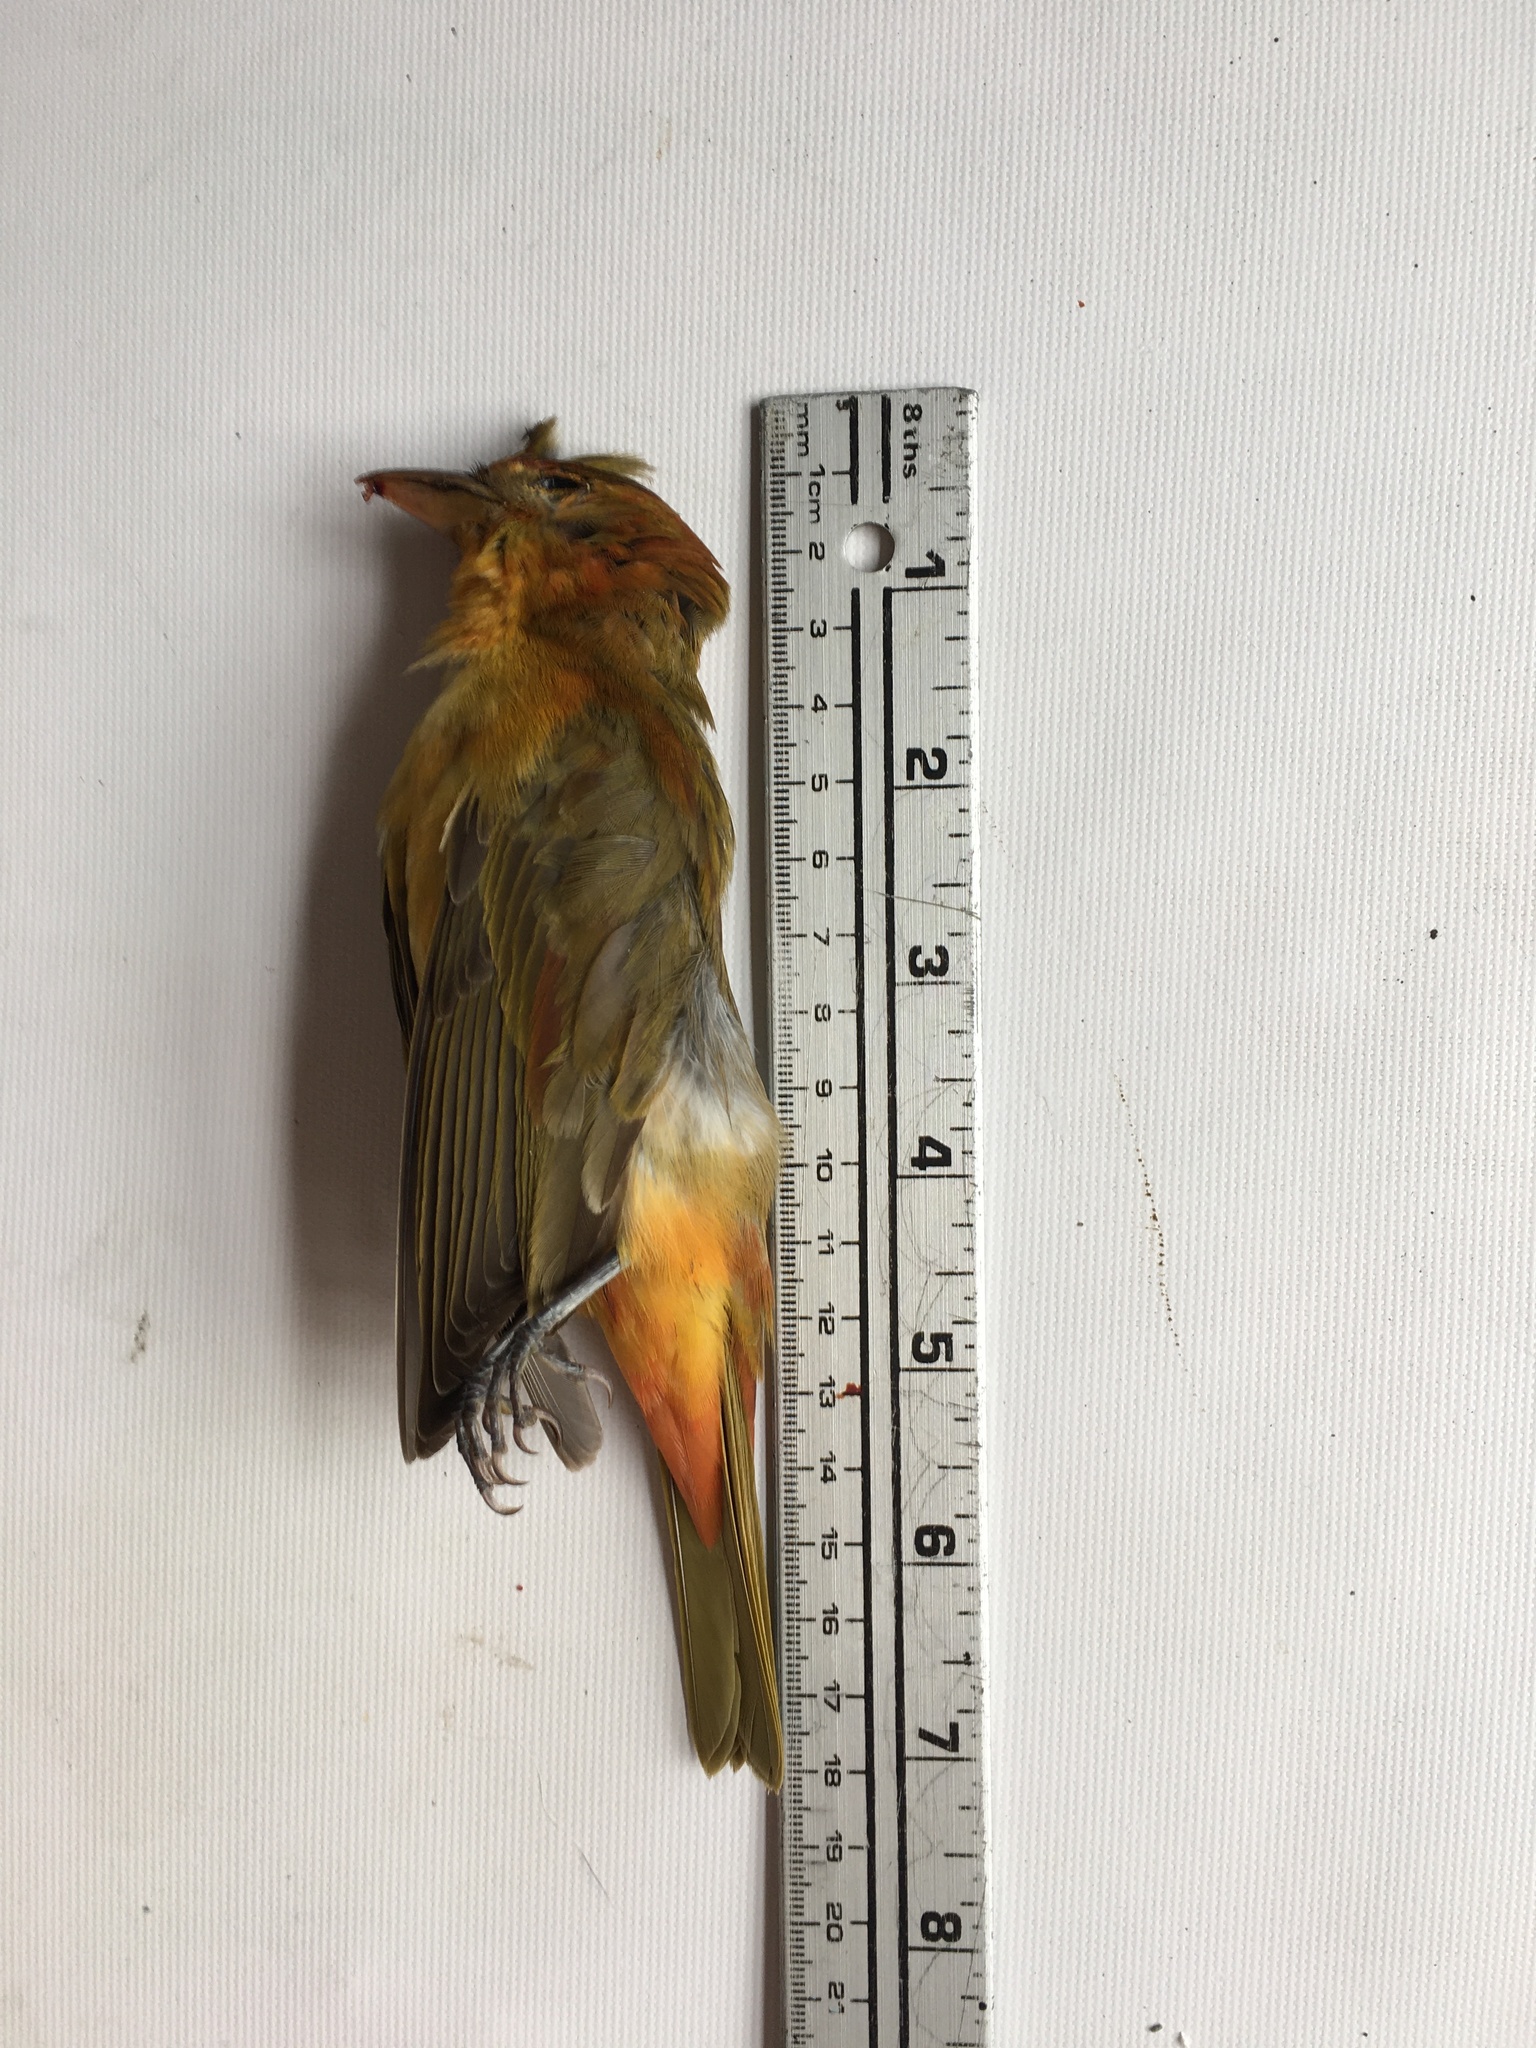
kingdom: Animalia
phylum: Chordata
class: Aves
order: Passeriformes
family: Cardinalidae
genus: Piranga
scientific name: Piranga rubra
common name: Summer tanager
